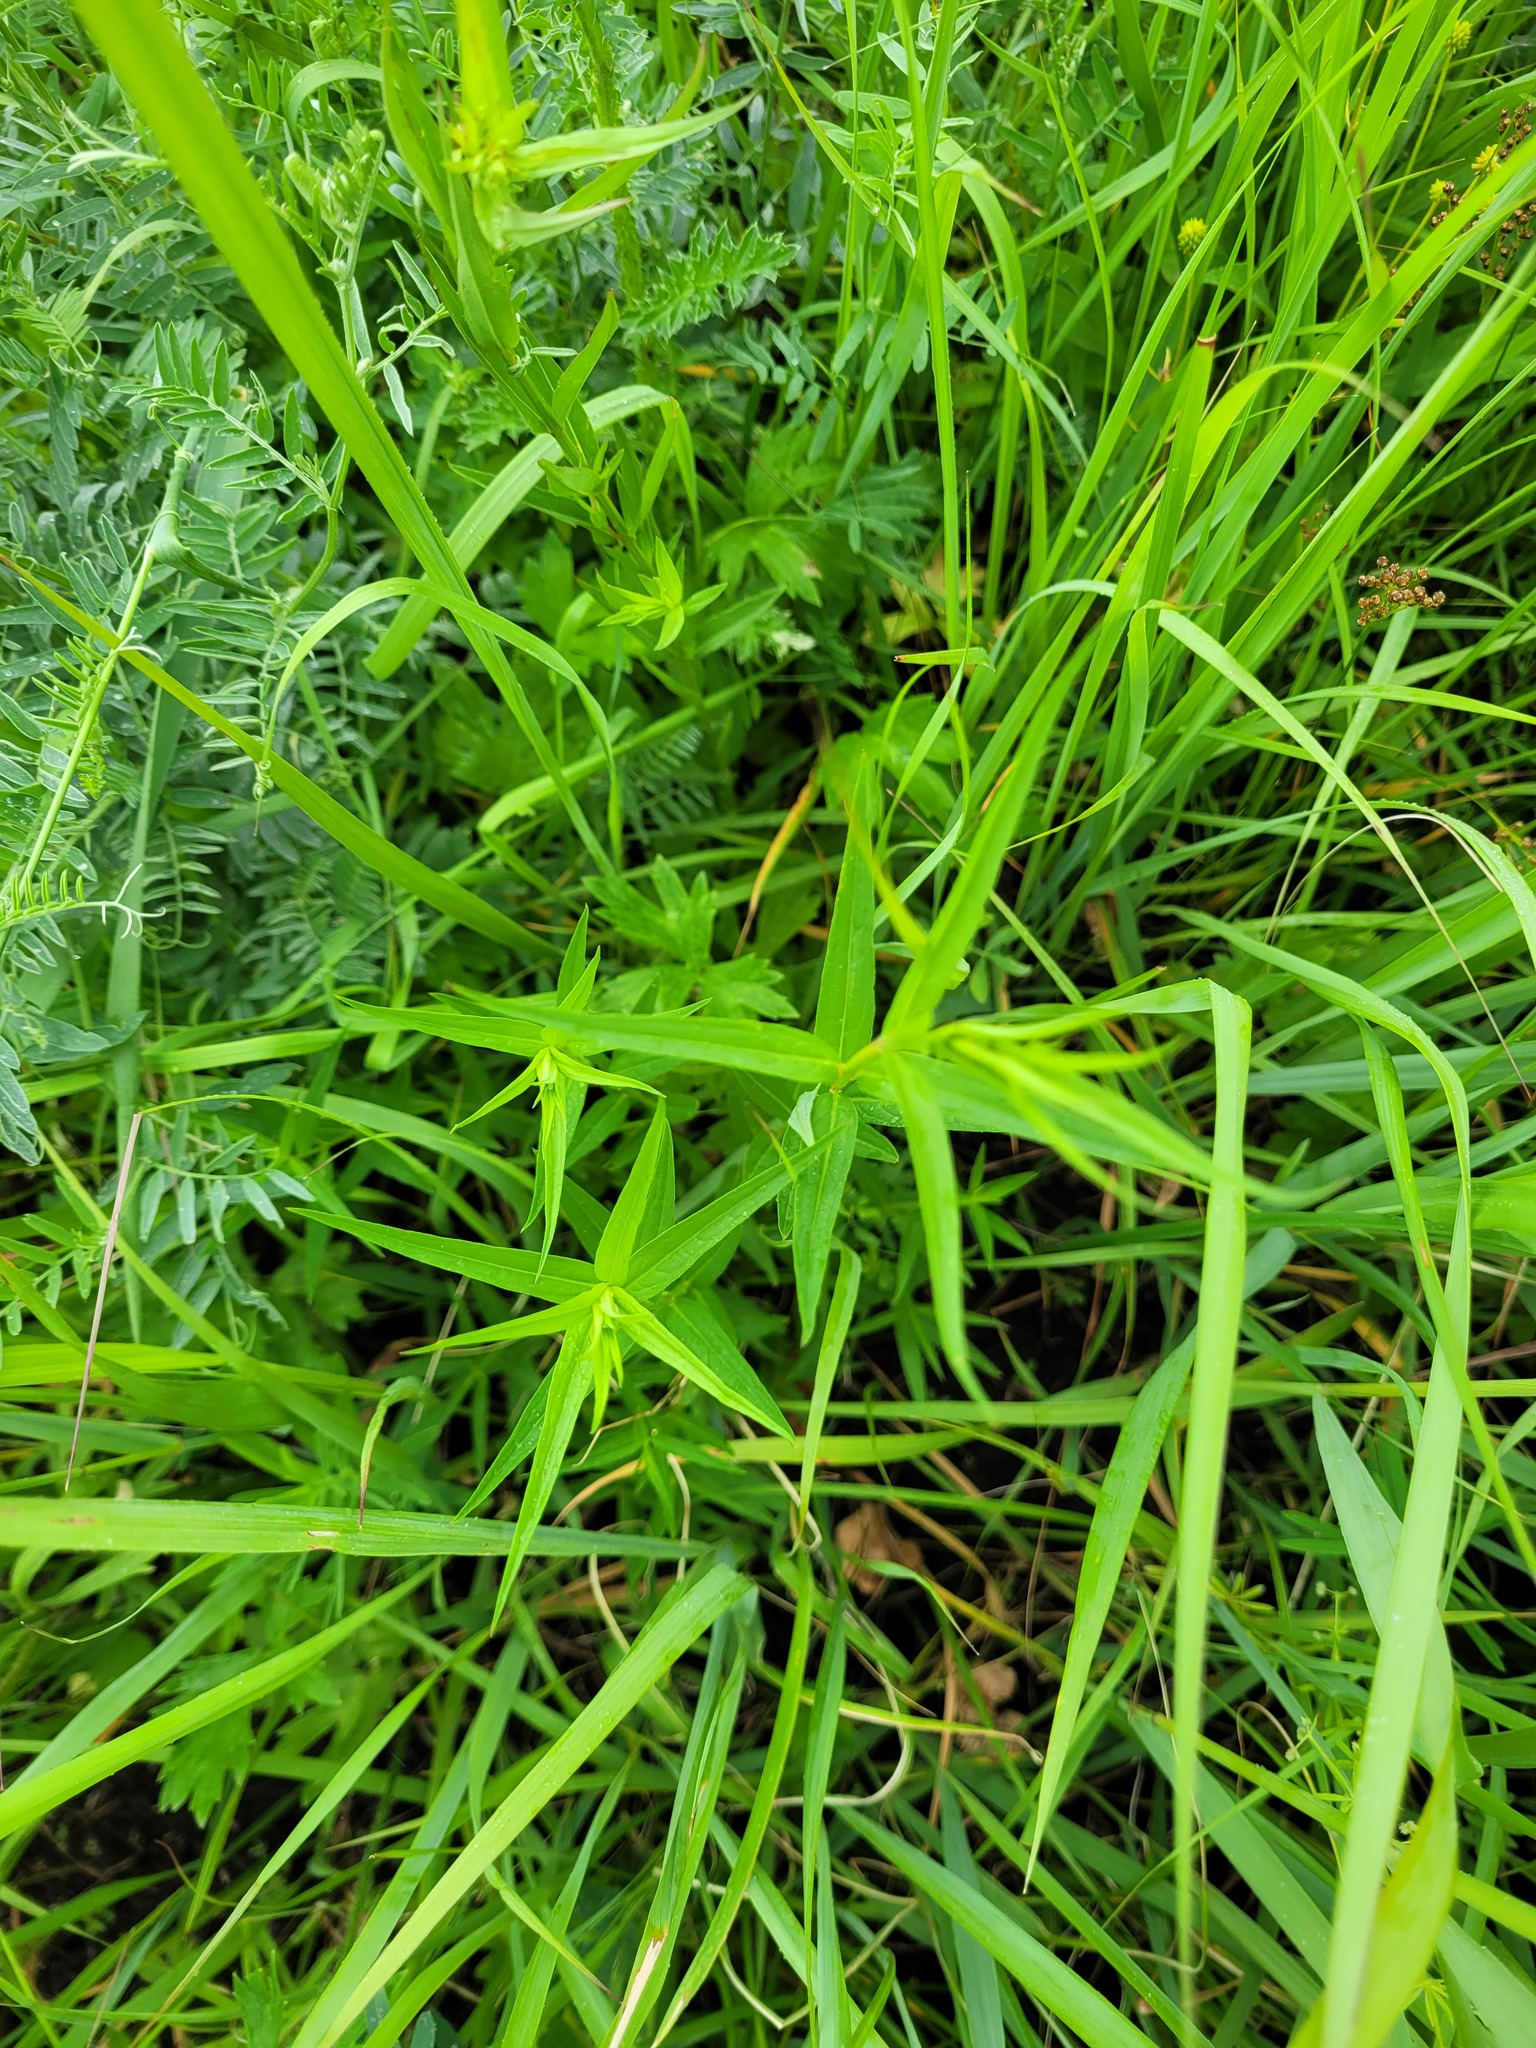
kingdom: Plantae
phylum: Tracheophyta
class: Magnoliopsida
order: Myrtales
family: Lythraceae
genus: Lythrum
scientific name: Lythrum virgatum
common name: European wand loosestrife
